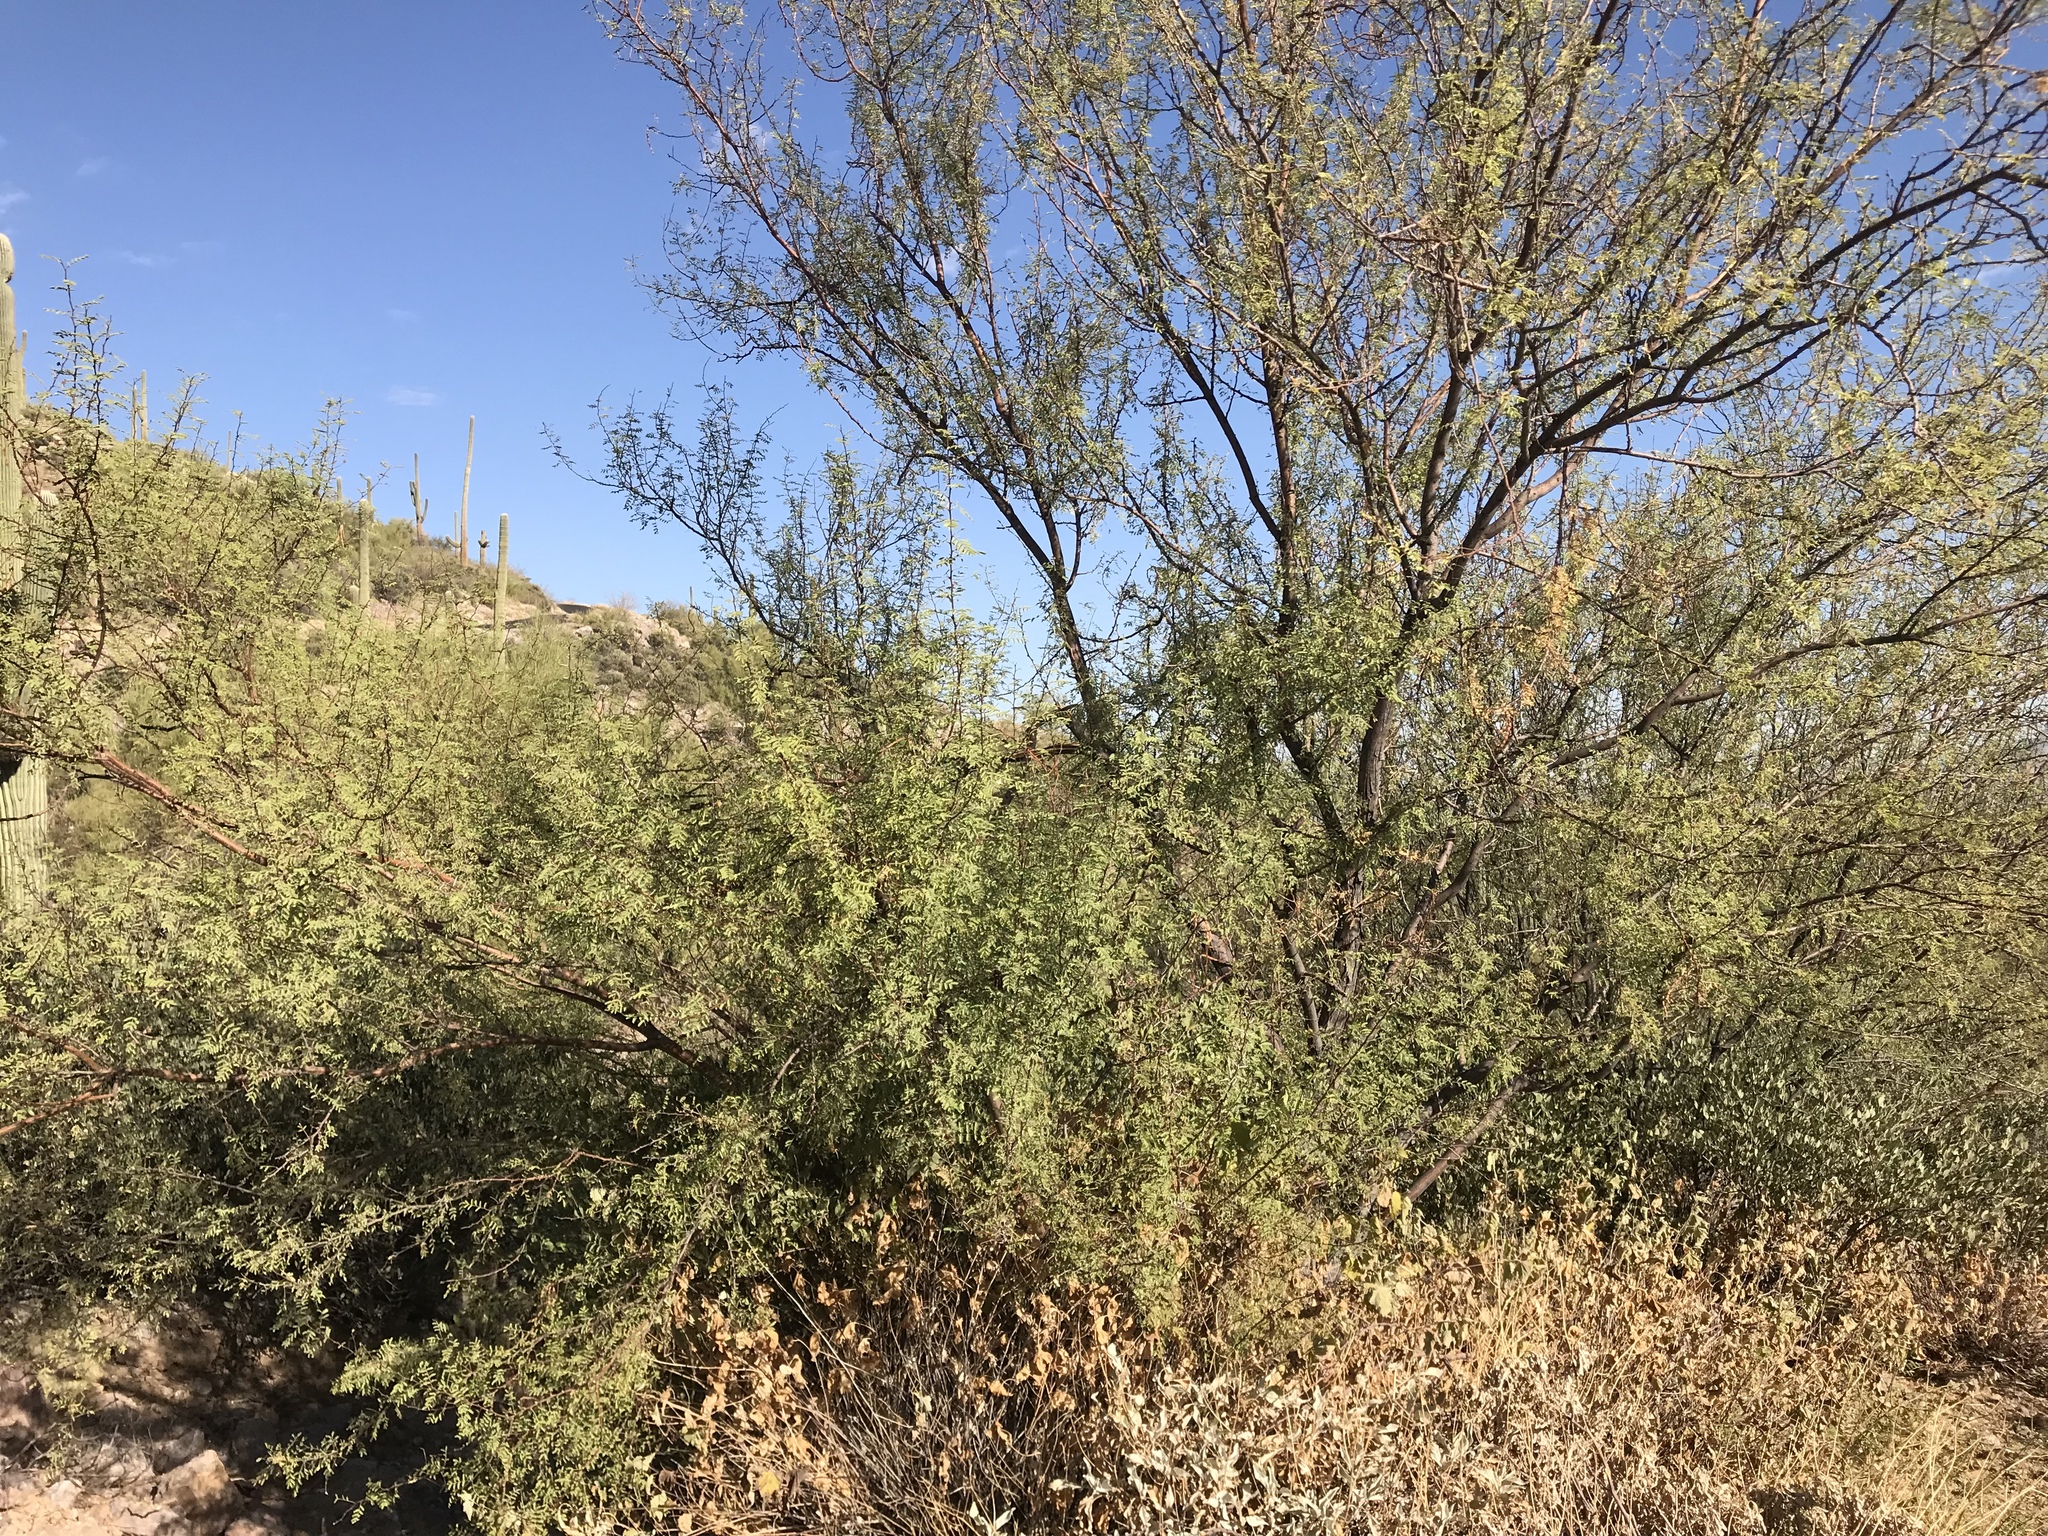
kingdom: Plantae
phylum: Tracheophyta
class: Magnoliopsida
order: Fabales
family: Fabaceae
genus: Vachellia
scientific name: Vachellia constricta
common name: Mescat acacia
